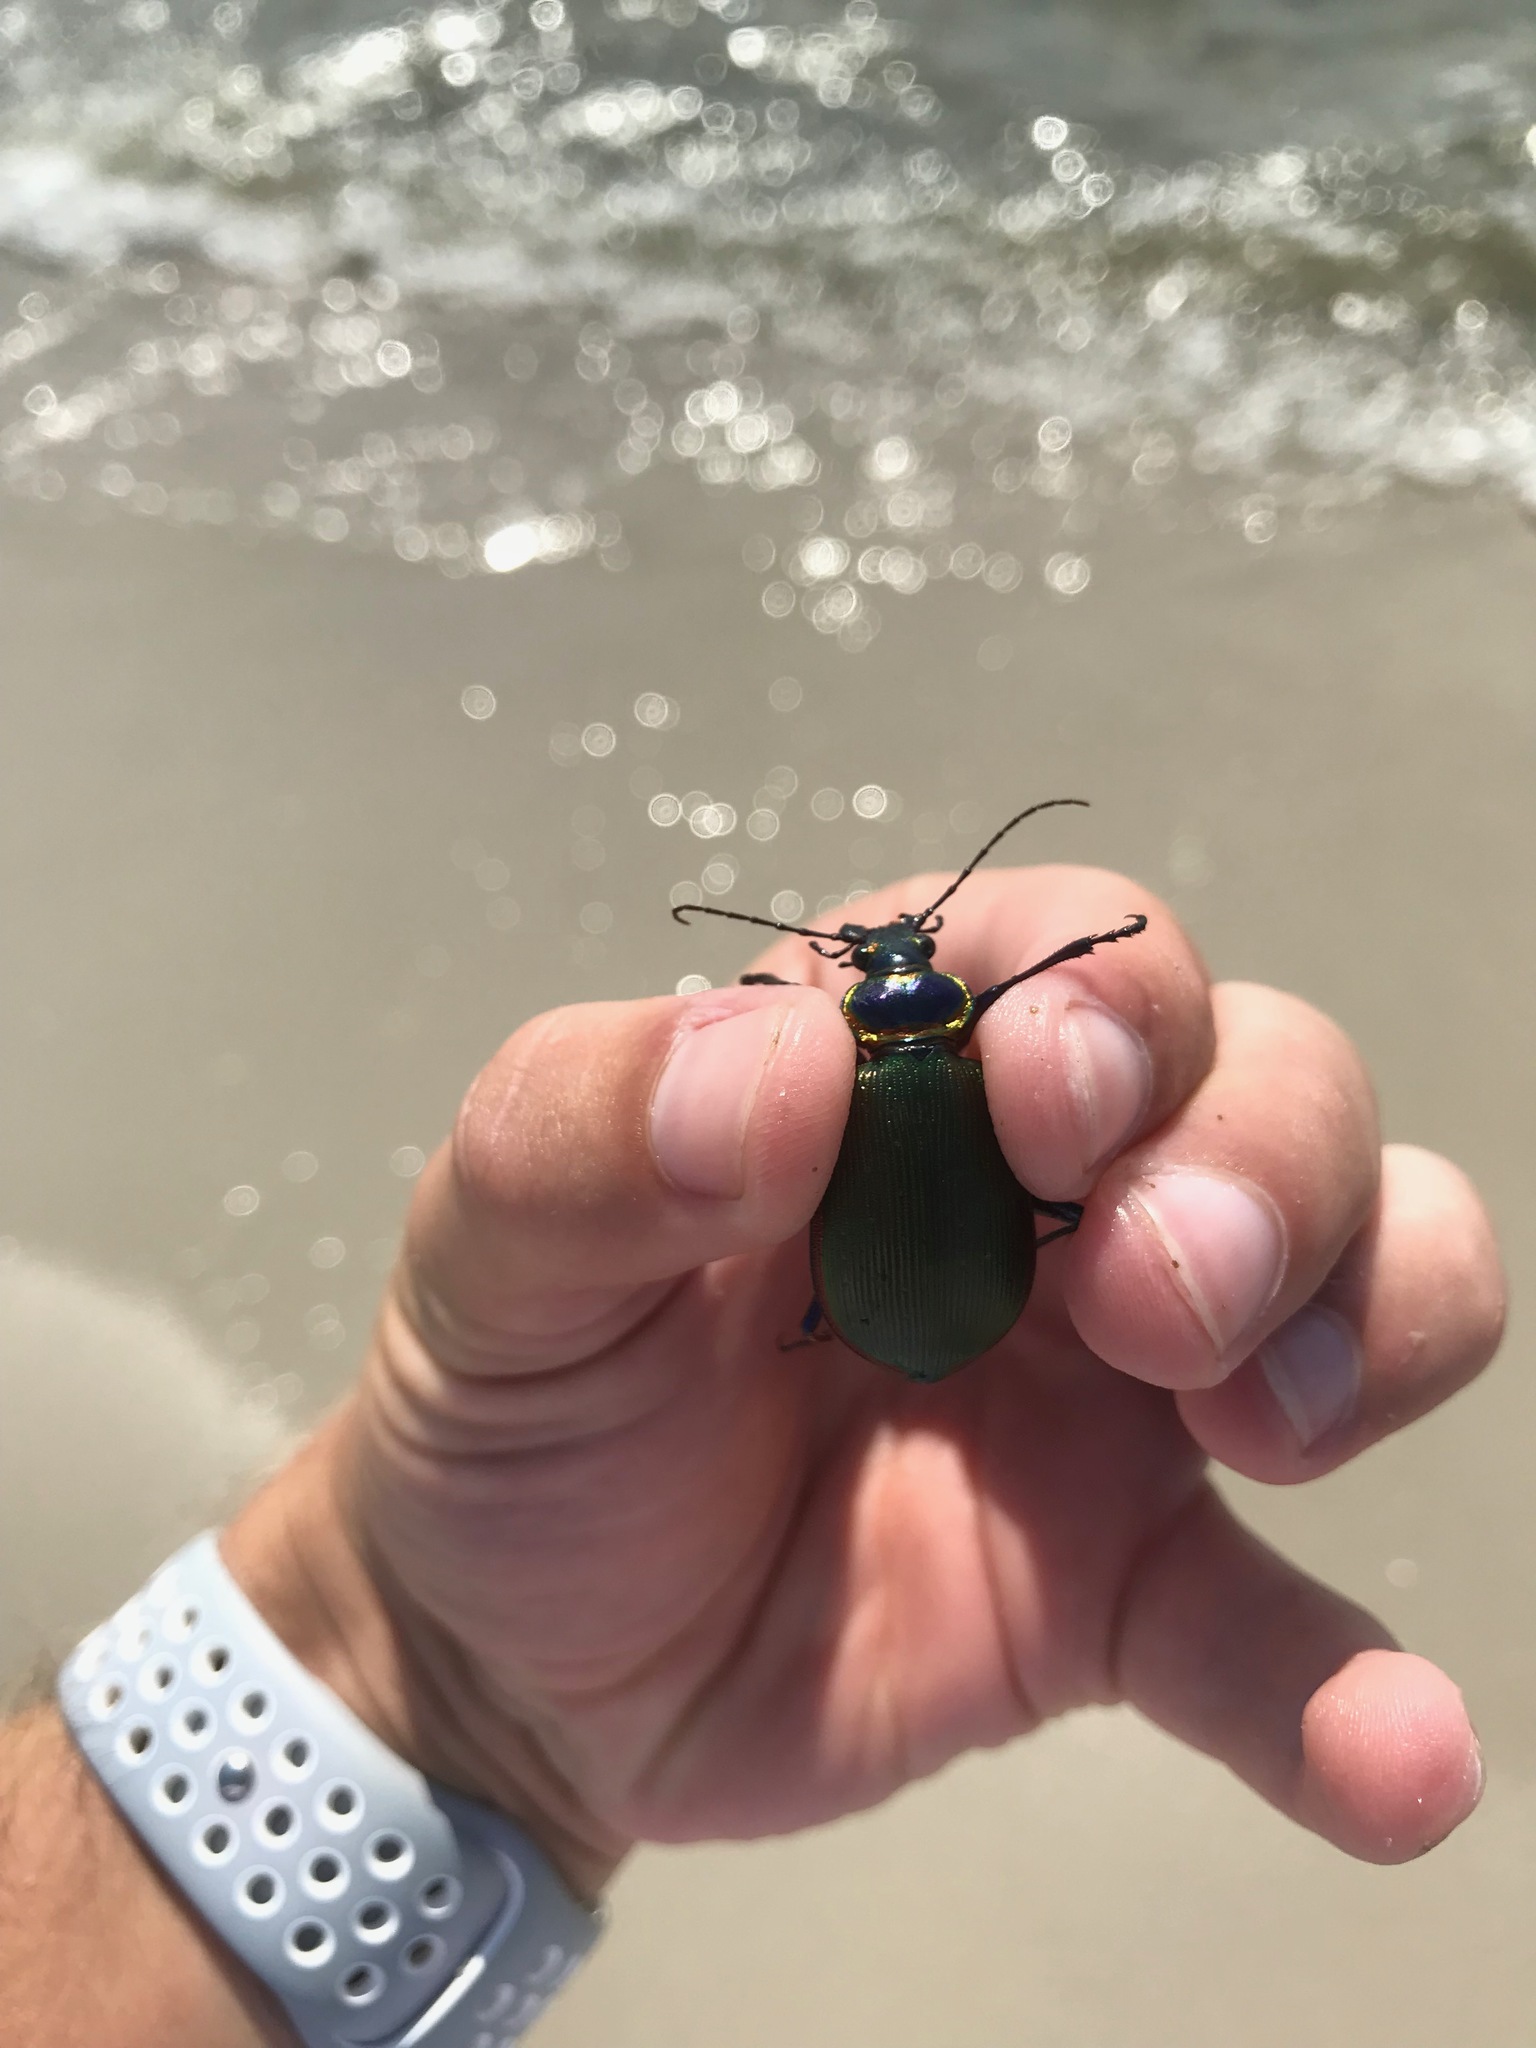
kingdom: Animalia
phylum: Arthropoda
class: Insecta
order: Coleoptera
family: Carabidae
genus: Calosoma
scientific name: Calosoma scrutator
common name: Fiery searcher beetle
